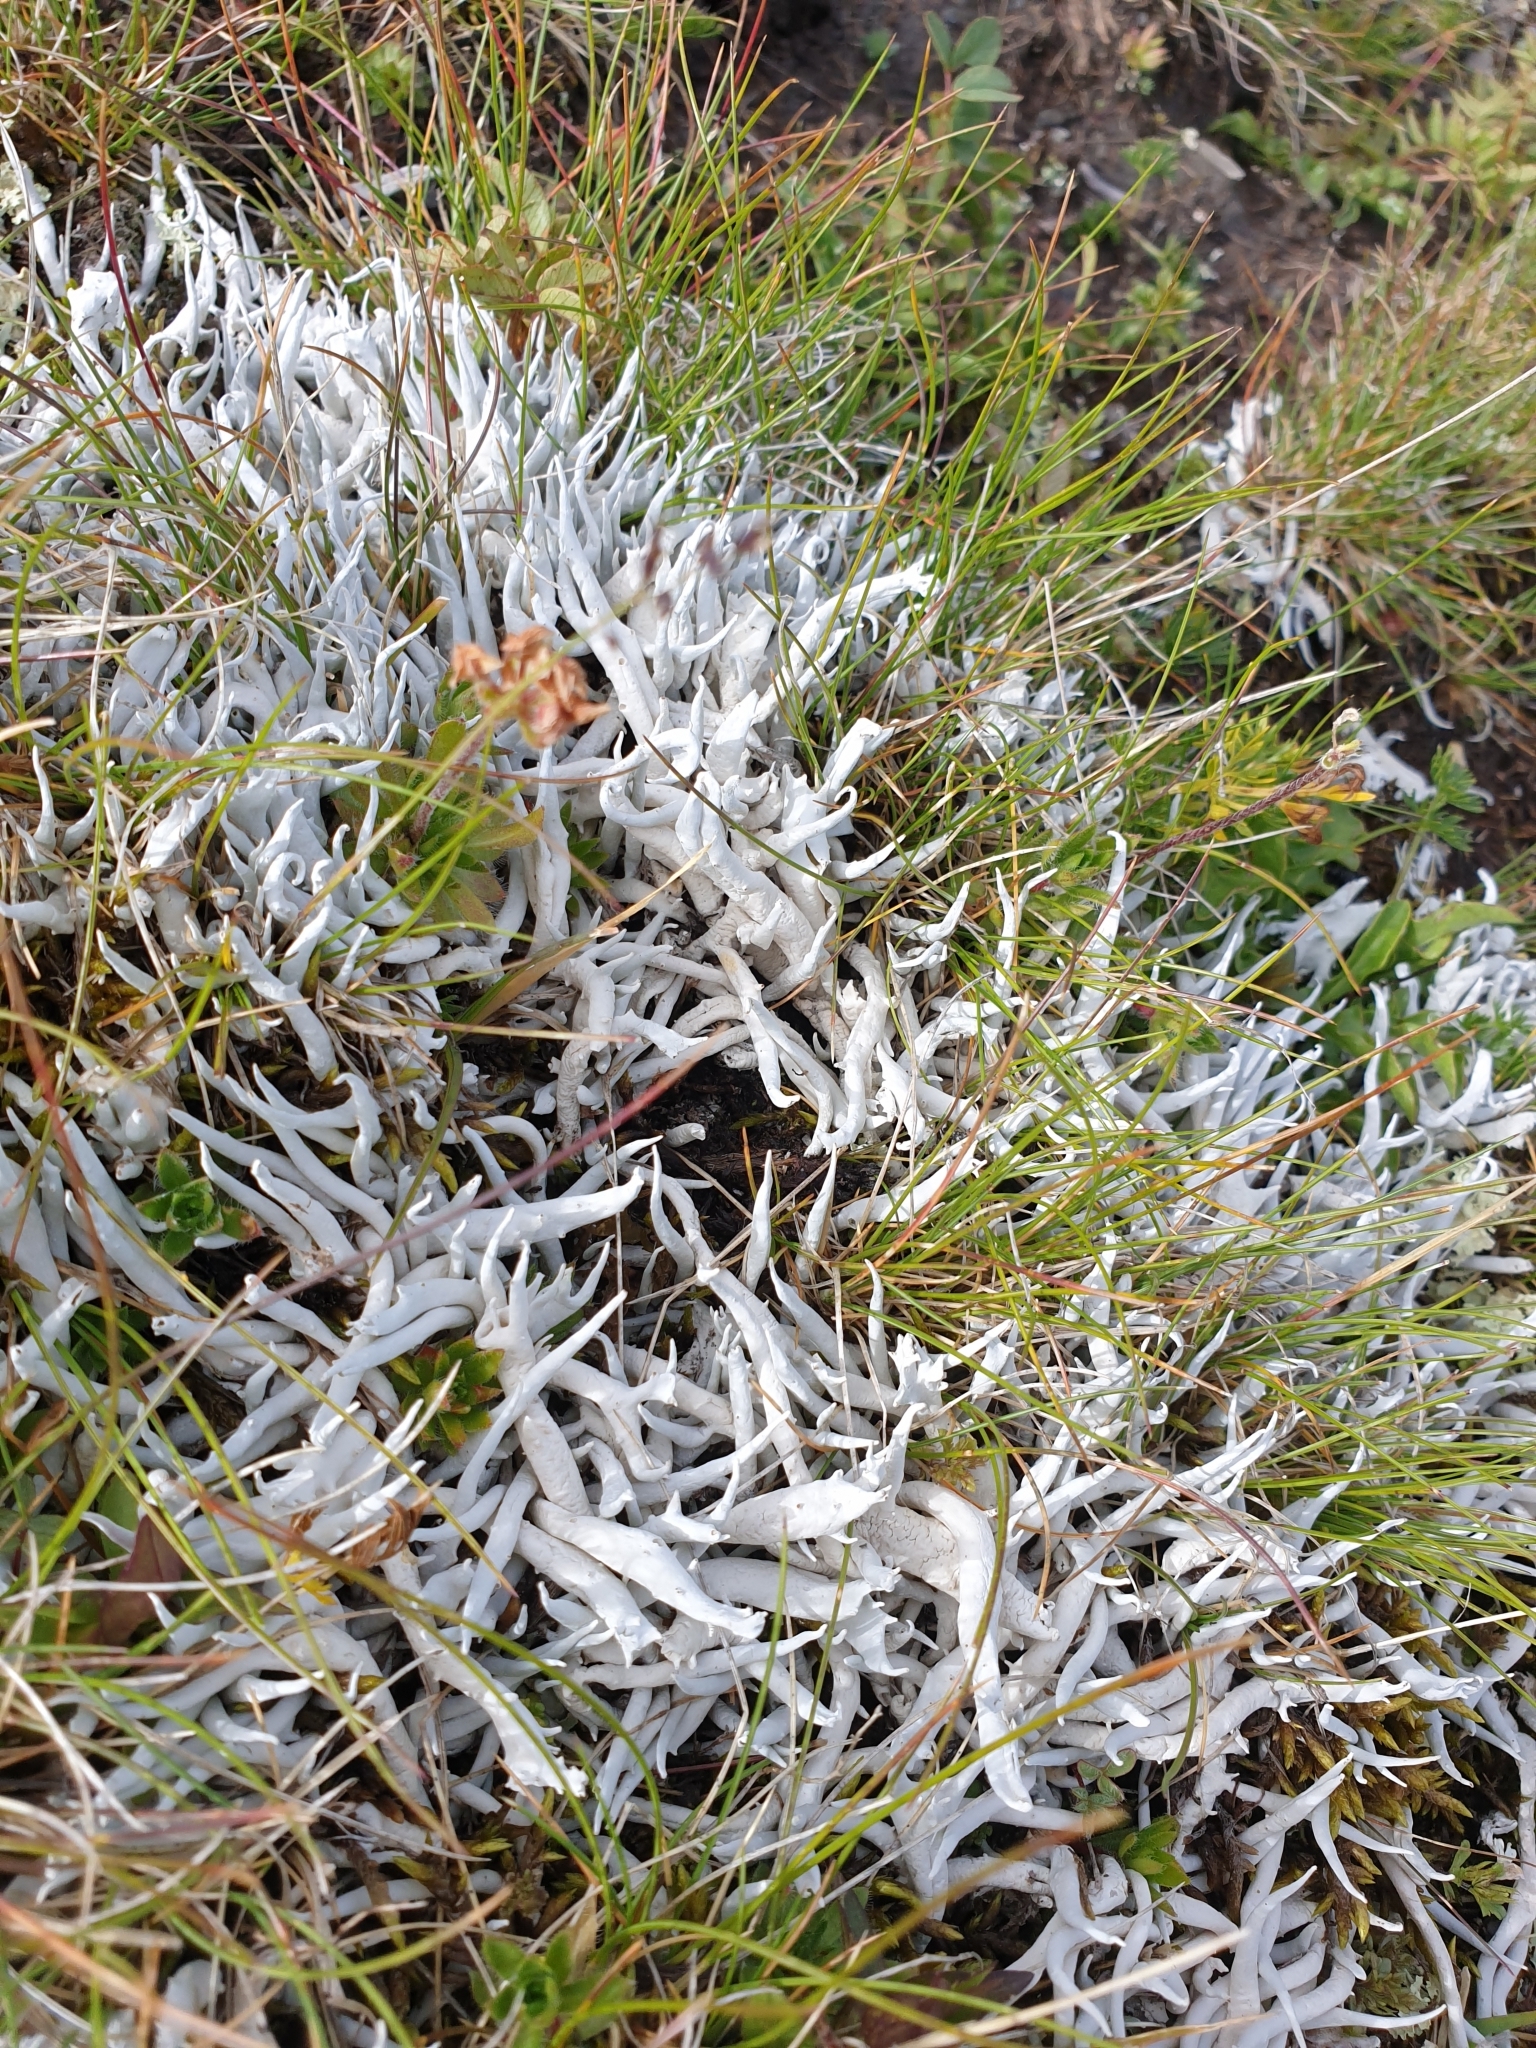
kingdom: Fungi
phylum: Ascomycota
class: Lecanoromycetes
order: Pertusariales
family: Icmadophilaceae
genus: Thamnolia
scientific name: Thamnolia vermicularis
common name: Whiteworm lichen
